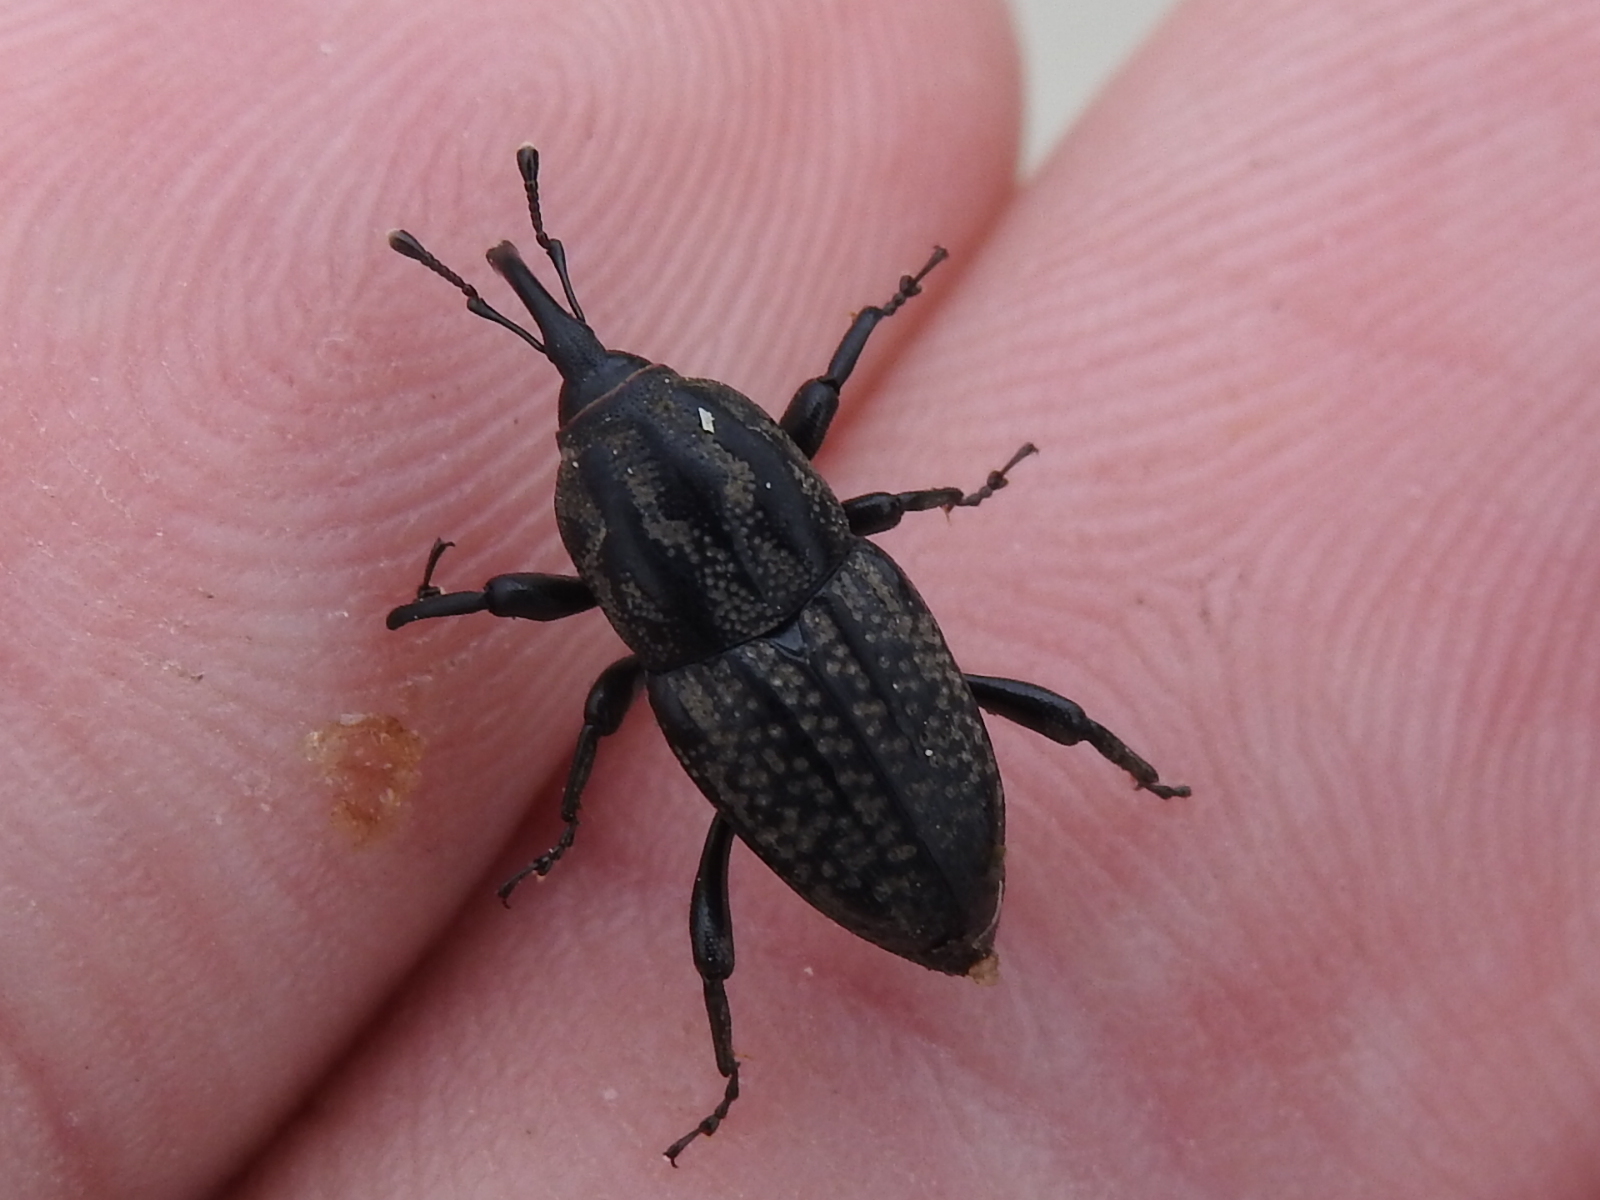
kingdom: Animalia
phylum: Arthropoda
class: Insecta
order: Coleoptera
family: Dryophthoridae
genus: Sphenophorus
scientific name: Sphenophorus cariosus
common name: Weevil
